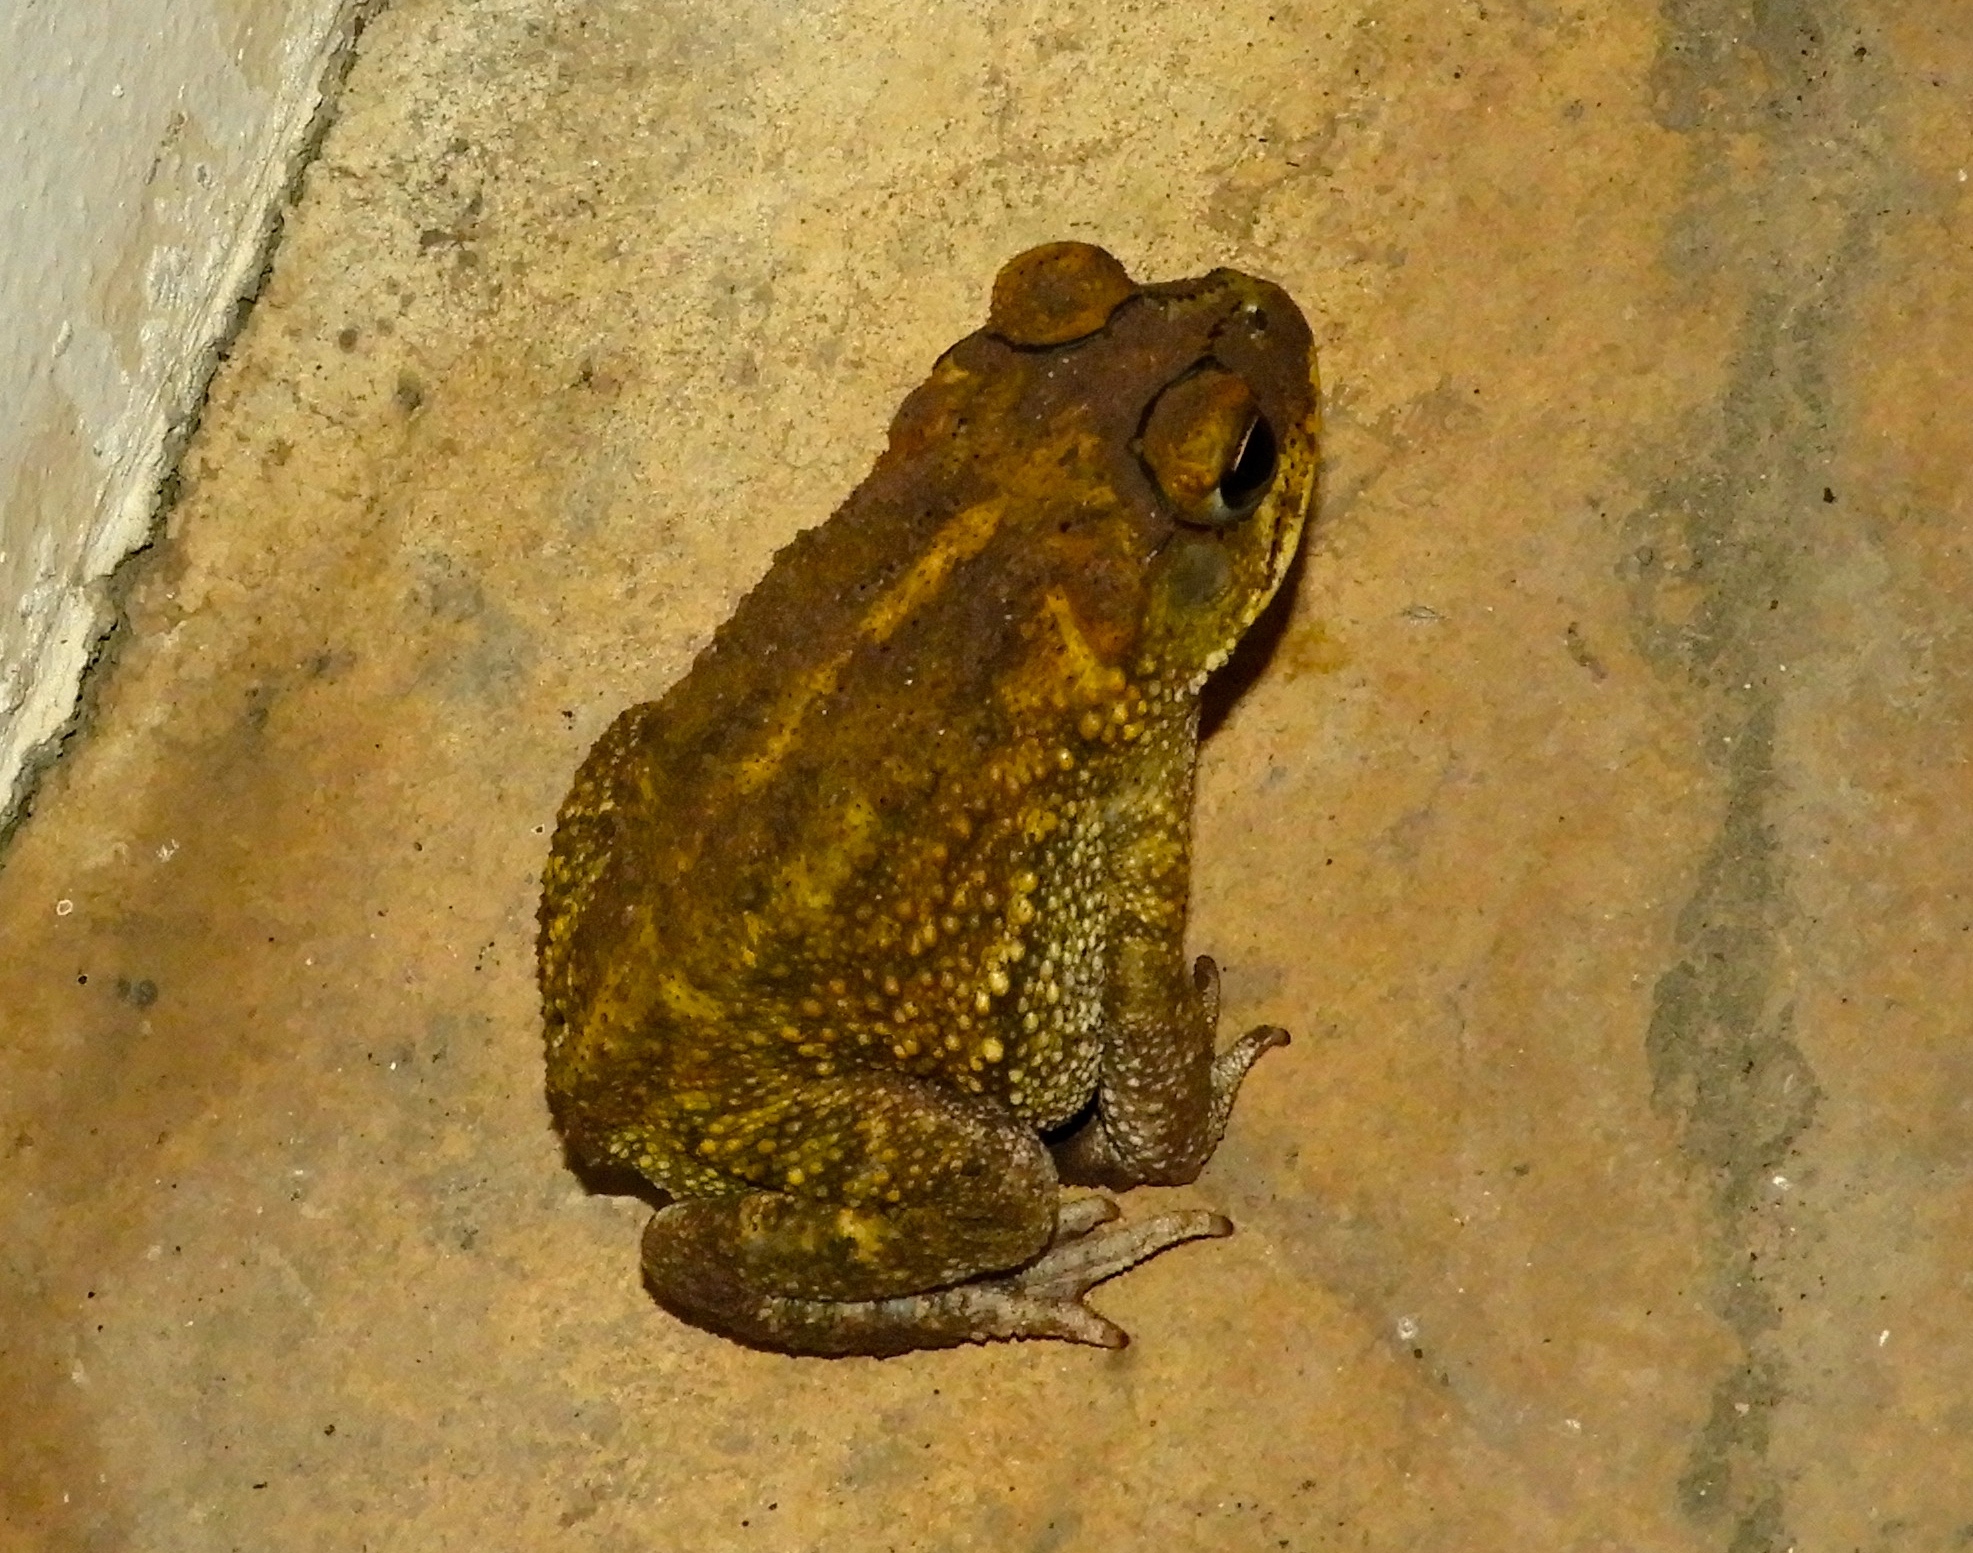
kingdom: Animalia
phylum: Chordata
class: Amphibia
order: Anura
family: Bufonidae
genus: Incilius
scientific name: Incilius mazatlanensis
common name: Sinaloa toad
